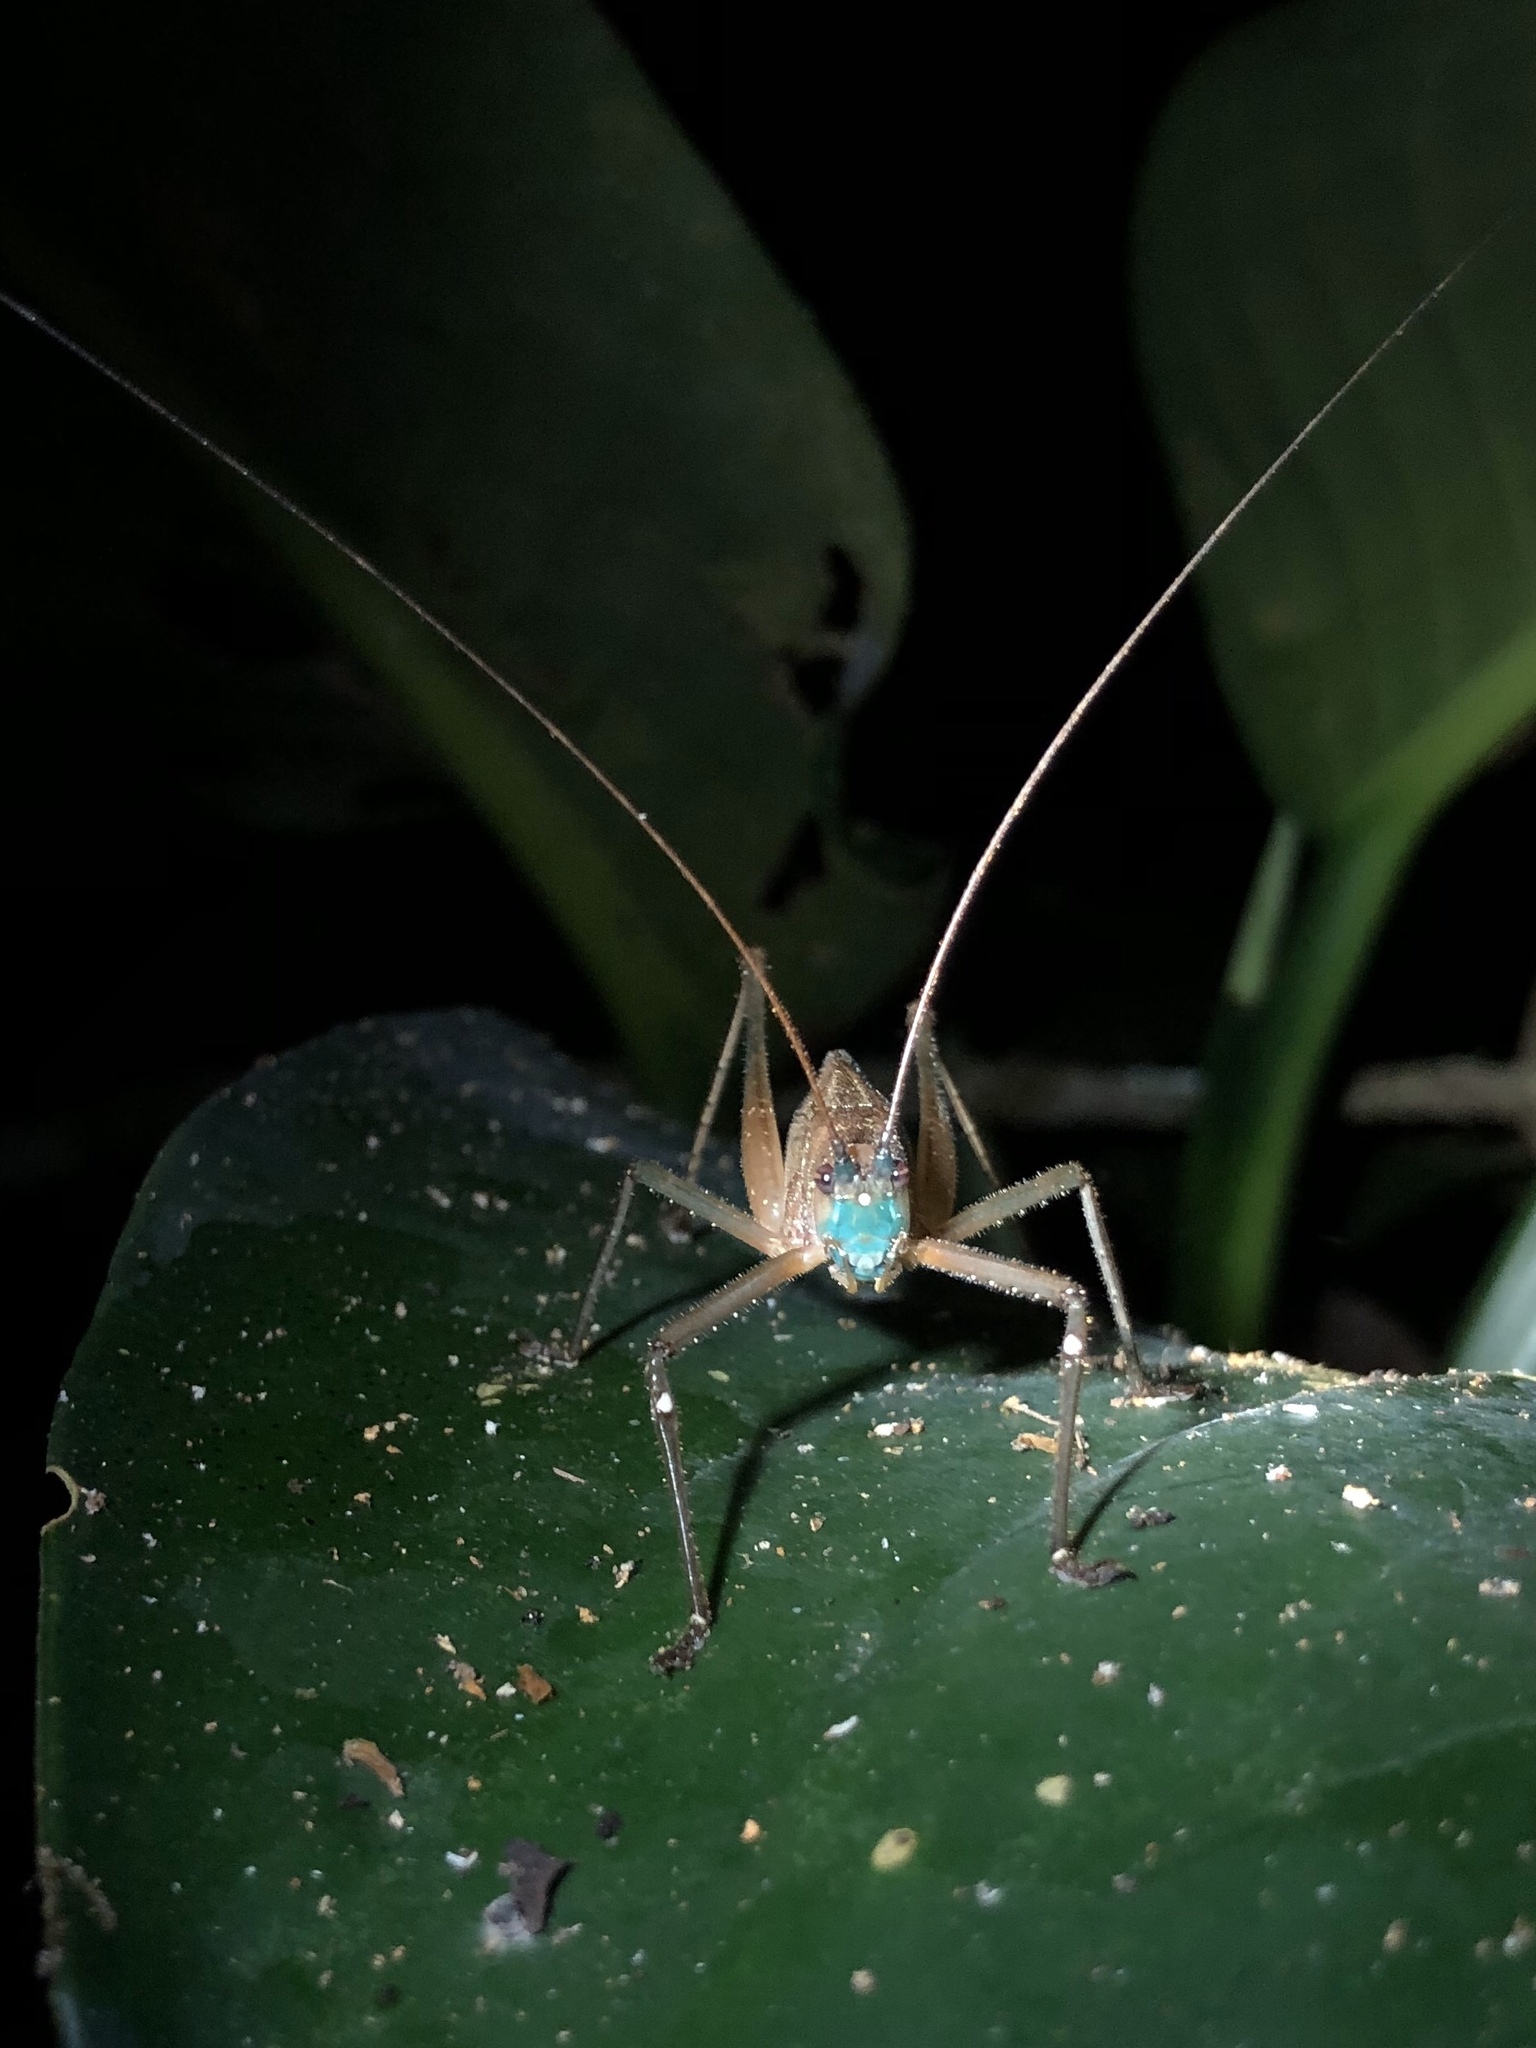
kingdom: Animalia
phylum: Arthropoda
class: Insecta
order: Orthoptera
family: Tettigoniidae
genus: Docidocercus
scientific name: Docidocercus gigliotosi
